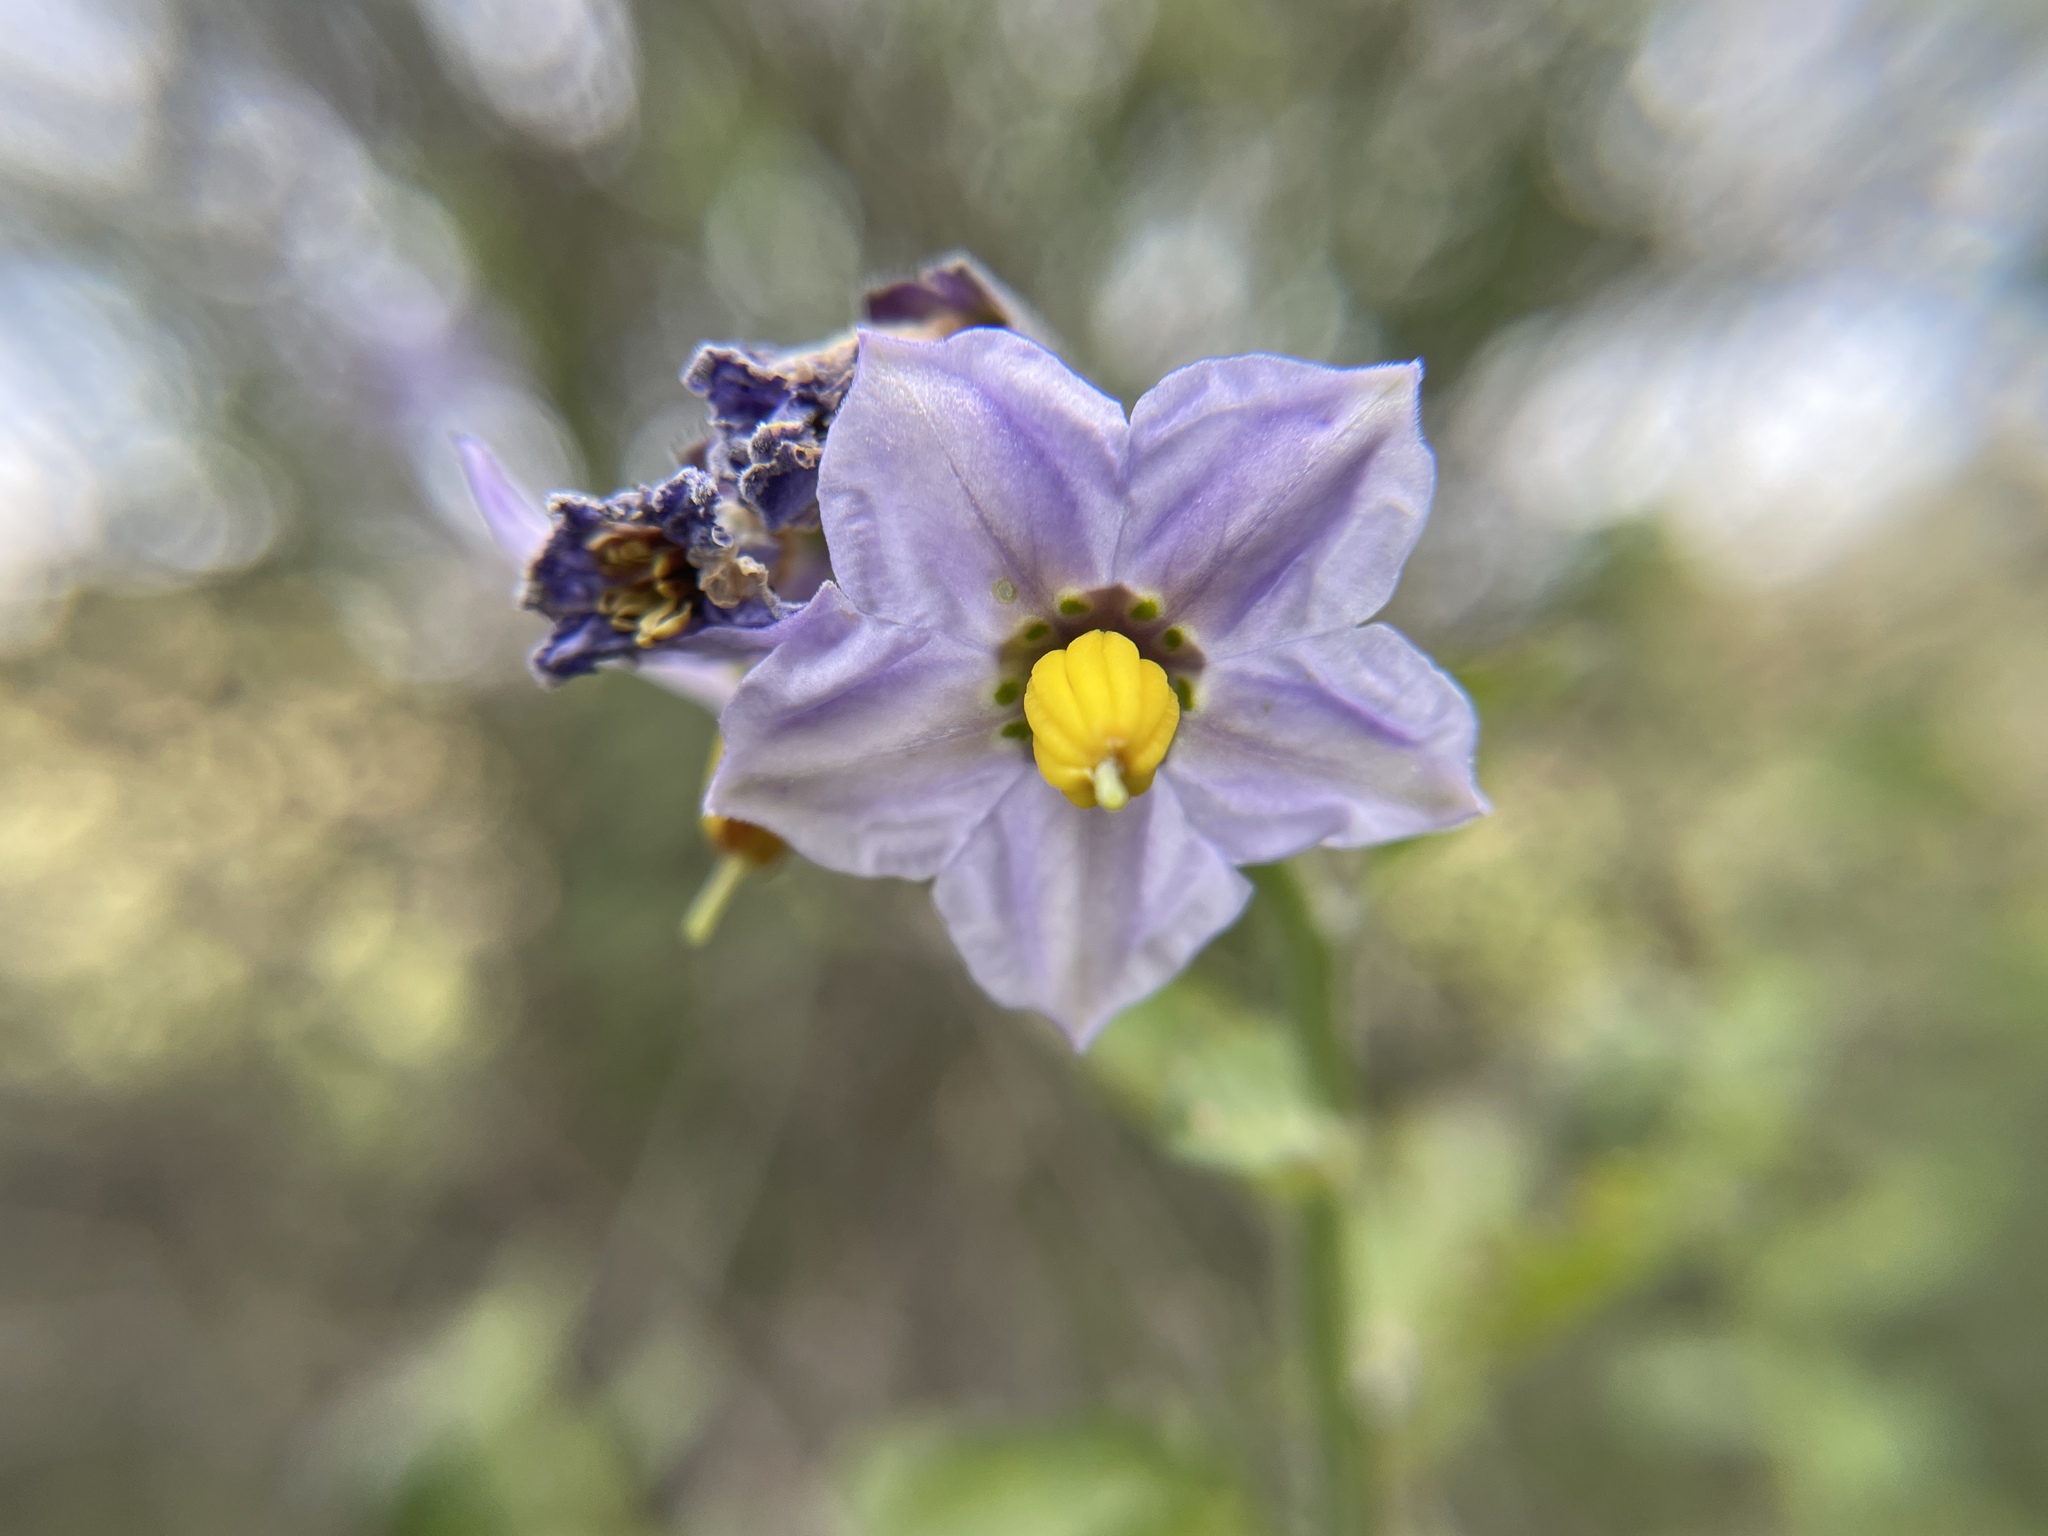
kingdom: Plantae
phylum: Tracheophyta
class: Magnoliopsida
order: Solanales
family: Solanaceae
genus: Solanum
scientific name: Solanum umbelliferum
